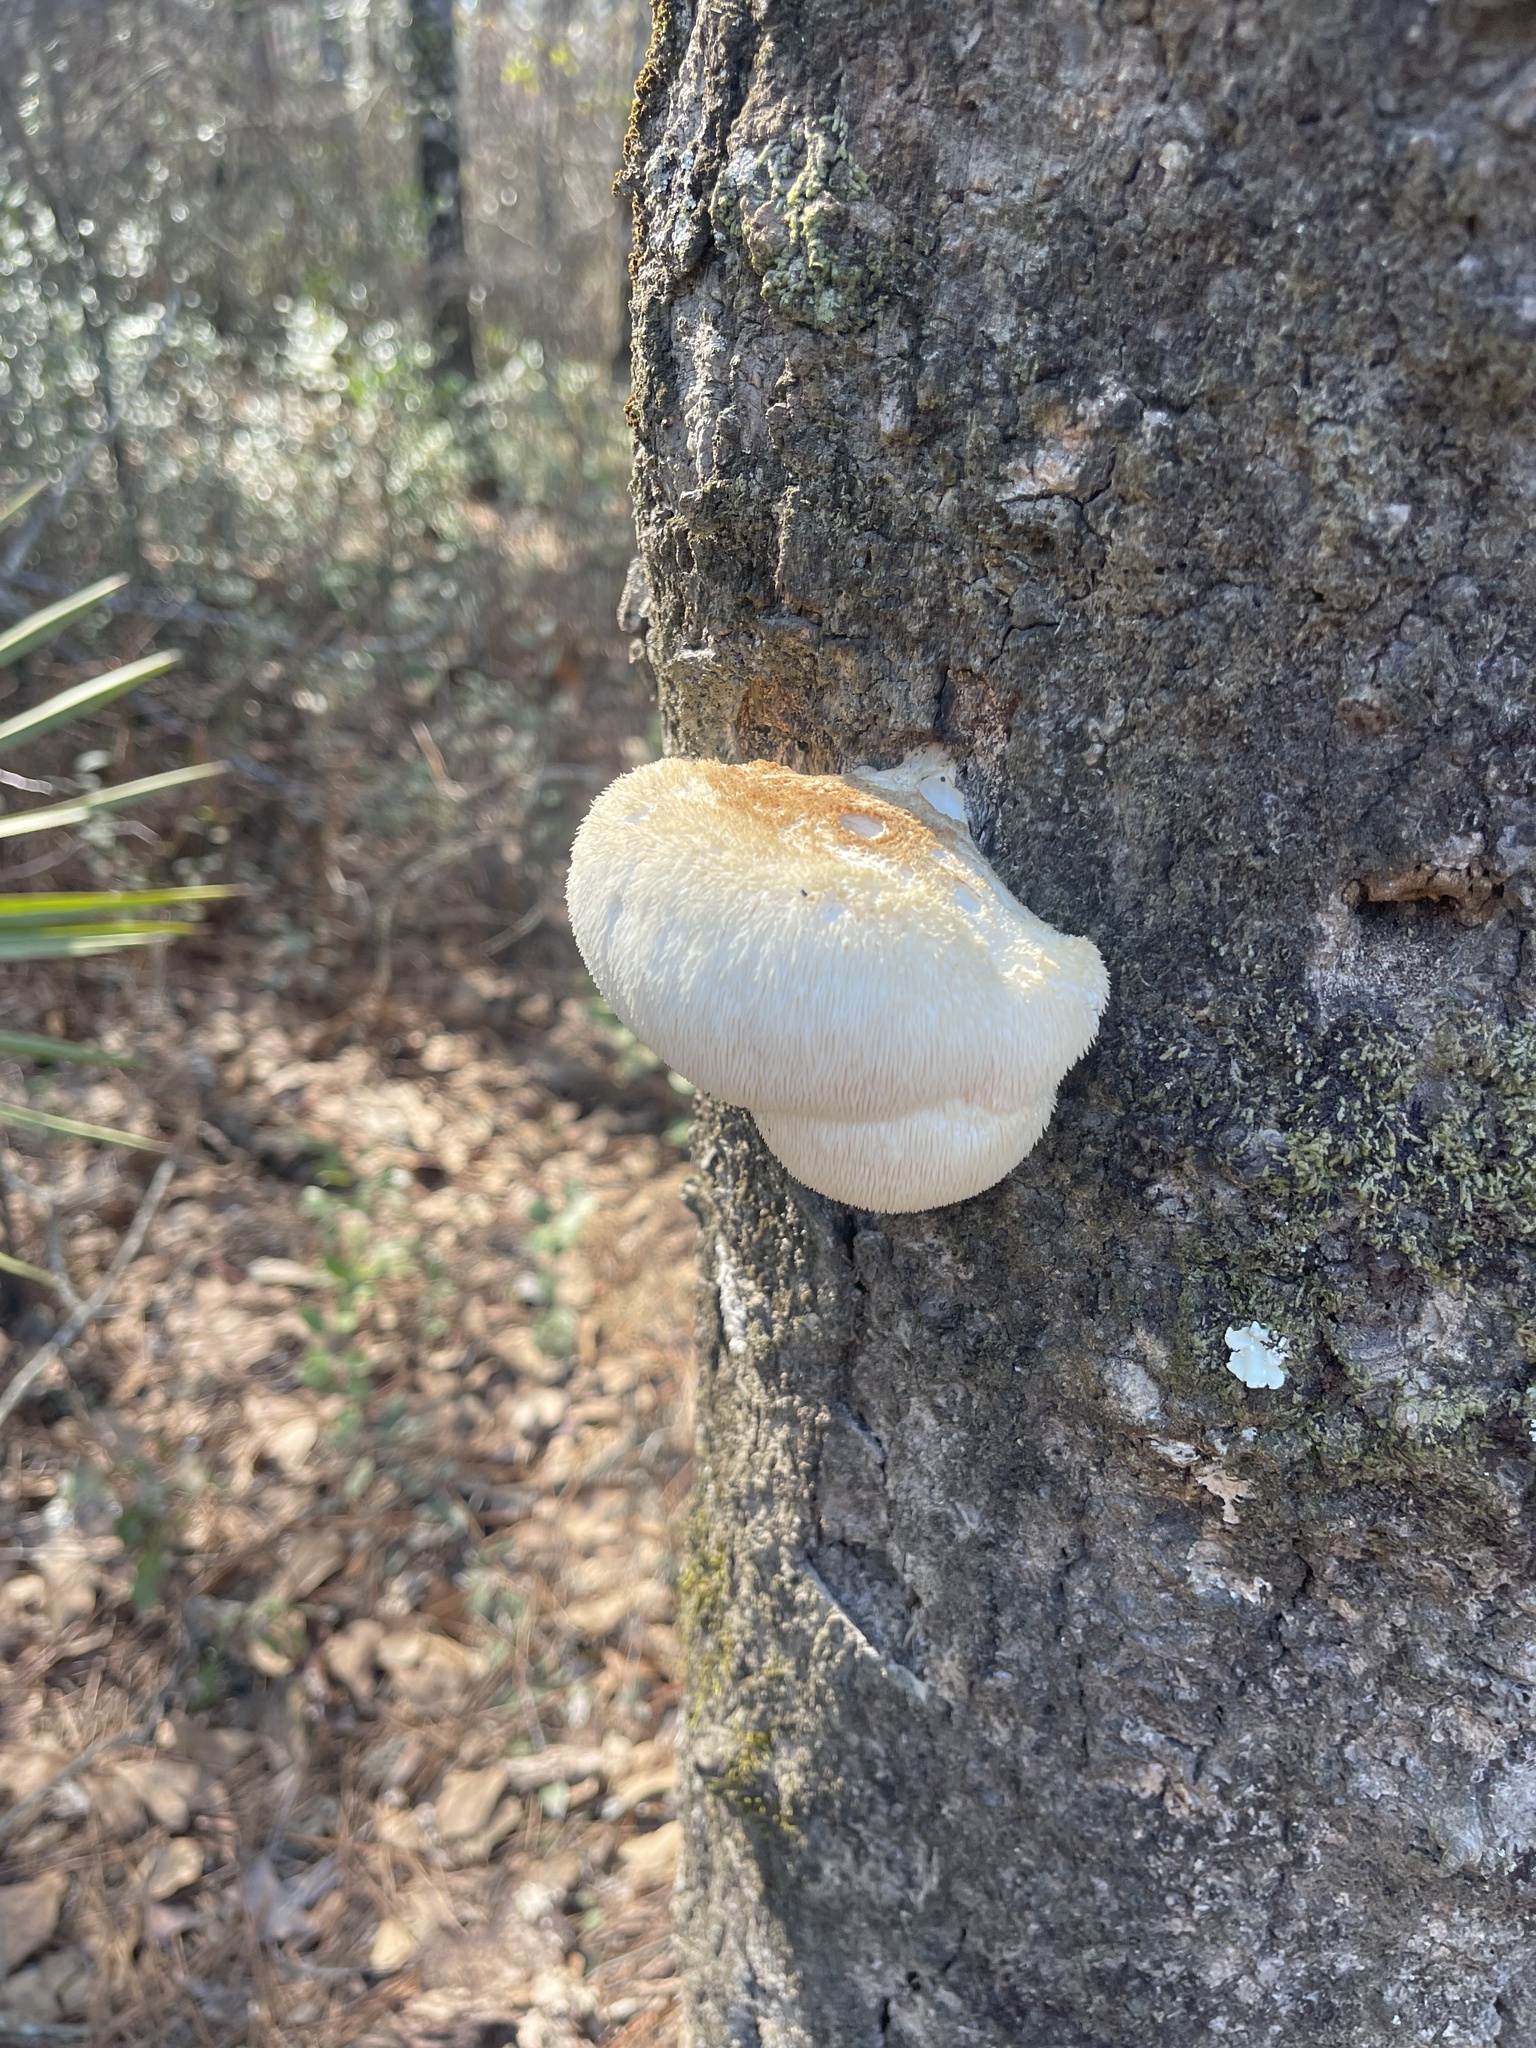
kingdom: Fungi
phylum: Basidiomycota
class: Agaricomycetes
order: Russulales
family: Hericiaceae
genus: Hericium
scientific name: Hericium erinaceus
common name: Bearded tooth
